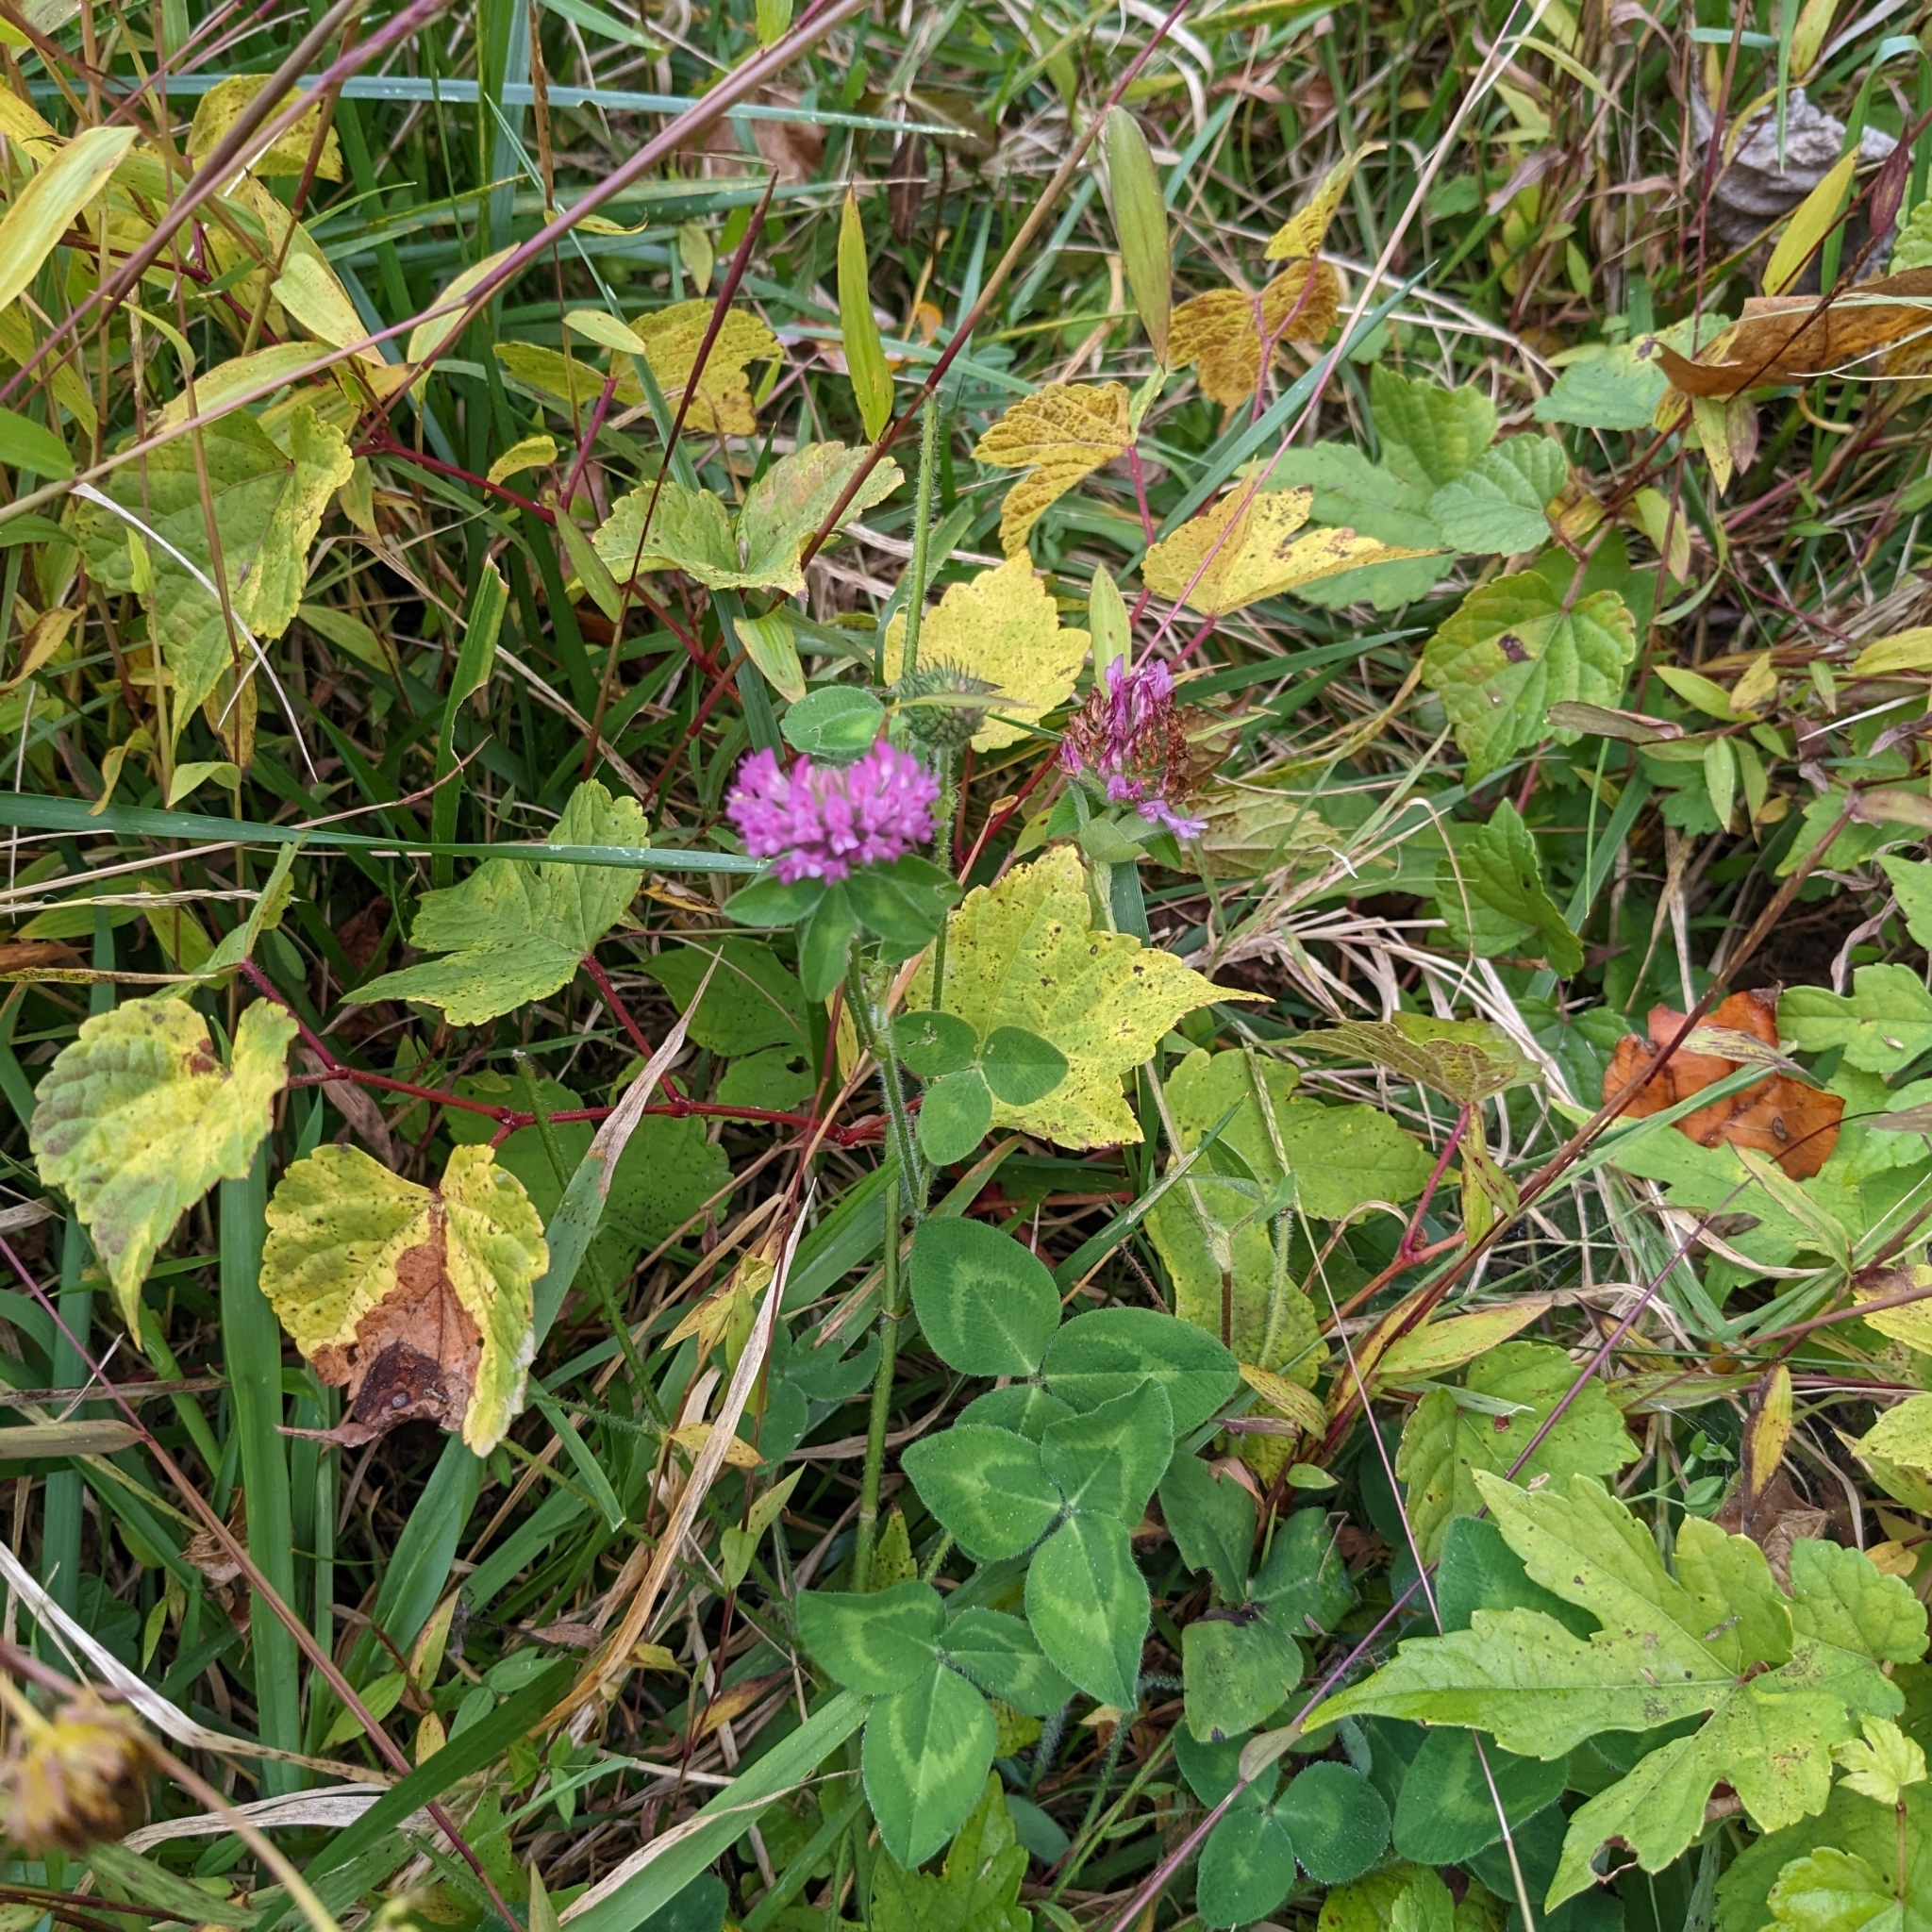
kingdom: Plantae
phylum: Tracheophyta
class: Magnoliopsida
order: Fabales
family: Fabaceae
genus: Trifolium
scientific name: Trifolium pratense
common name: Red clover
